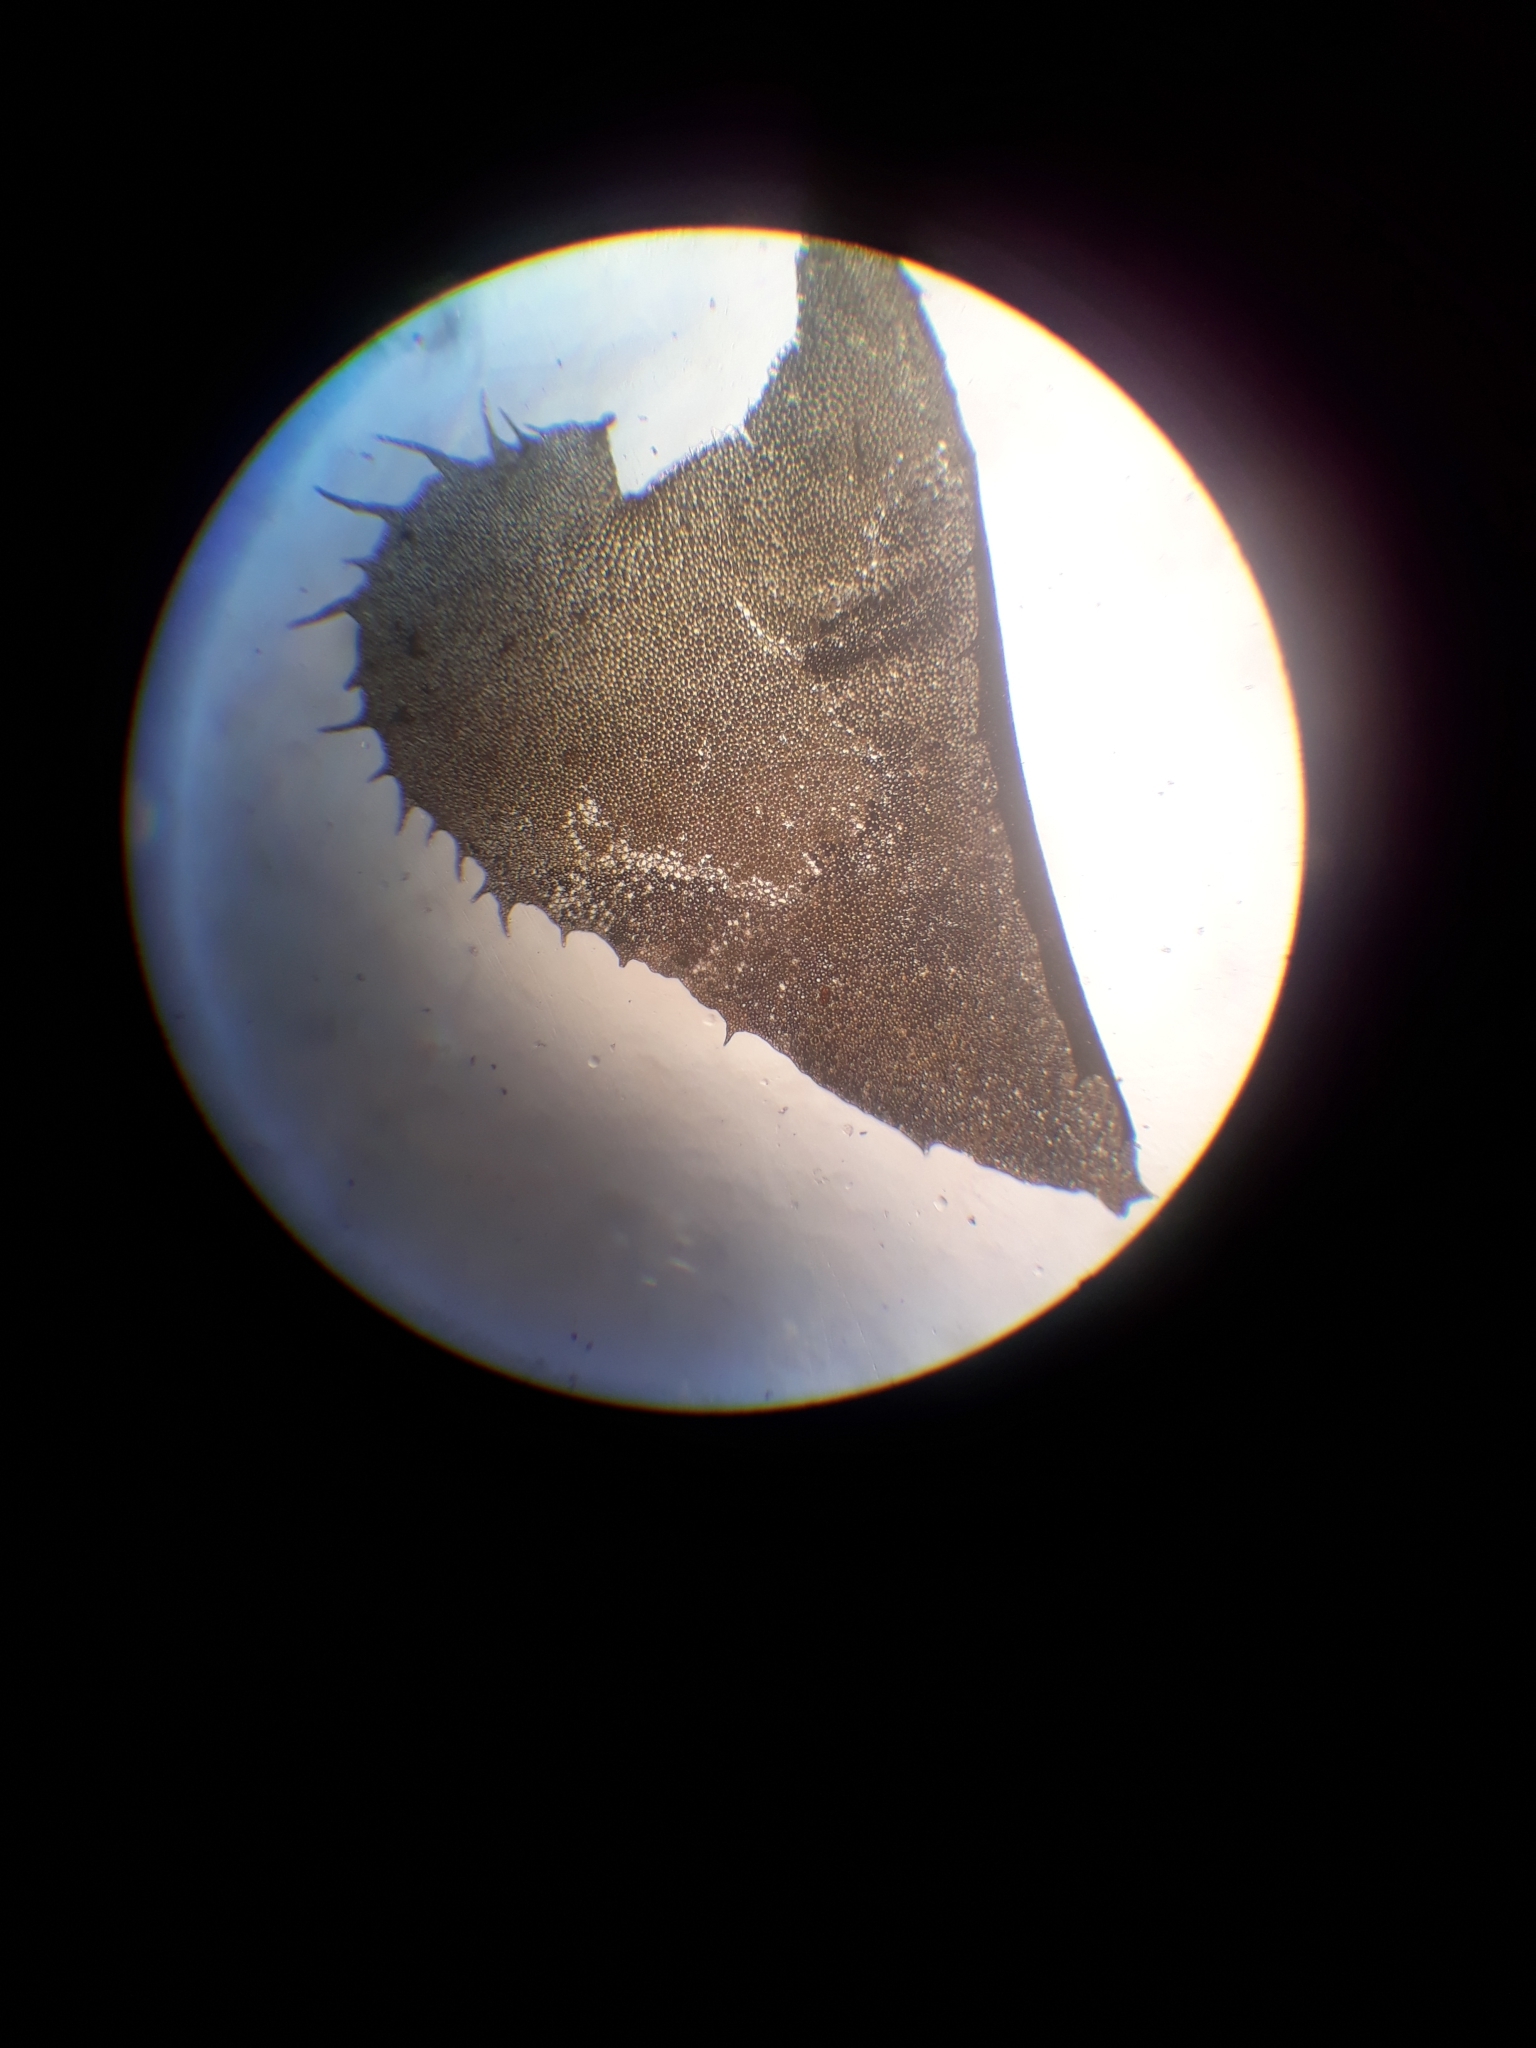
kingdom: Plantae
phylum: Marchantiophyta
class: Jungermanniopsida
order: Jungermanniales
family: Plagiochilaceae
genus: Plagiochila
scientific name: Plagiochila annotina
